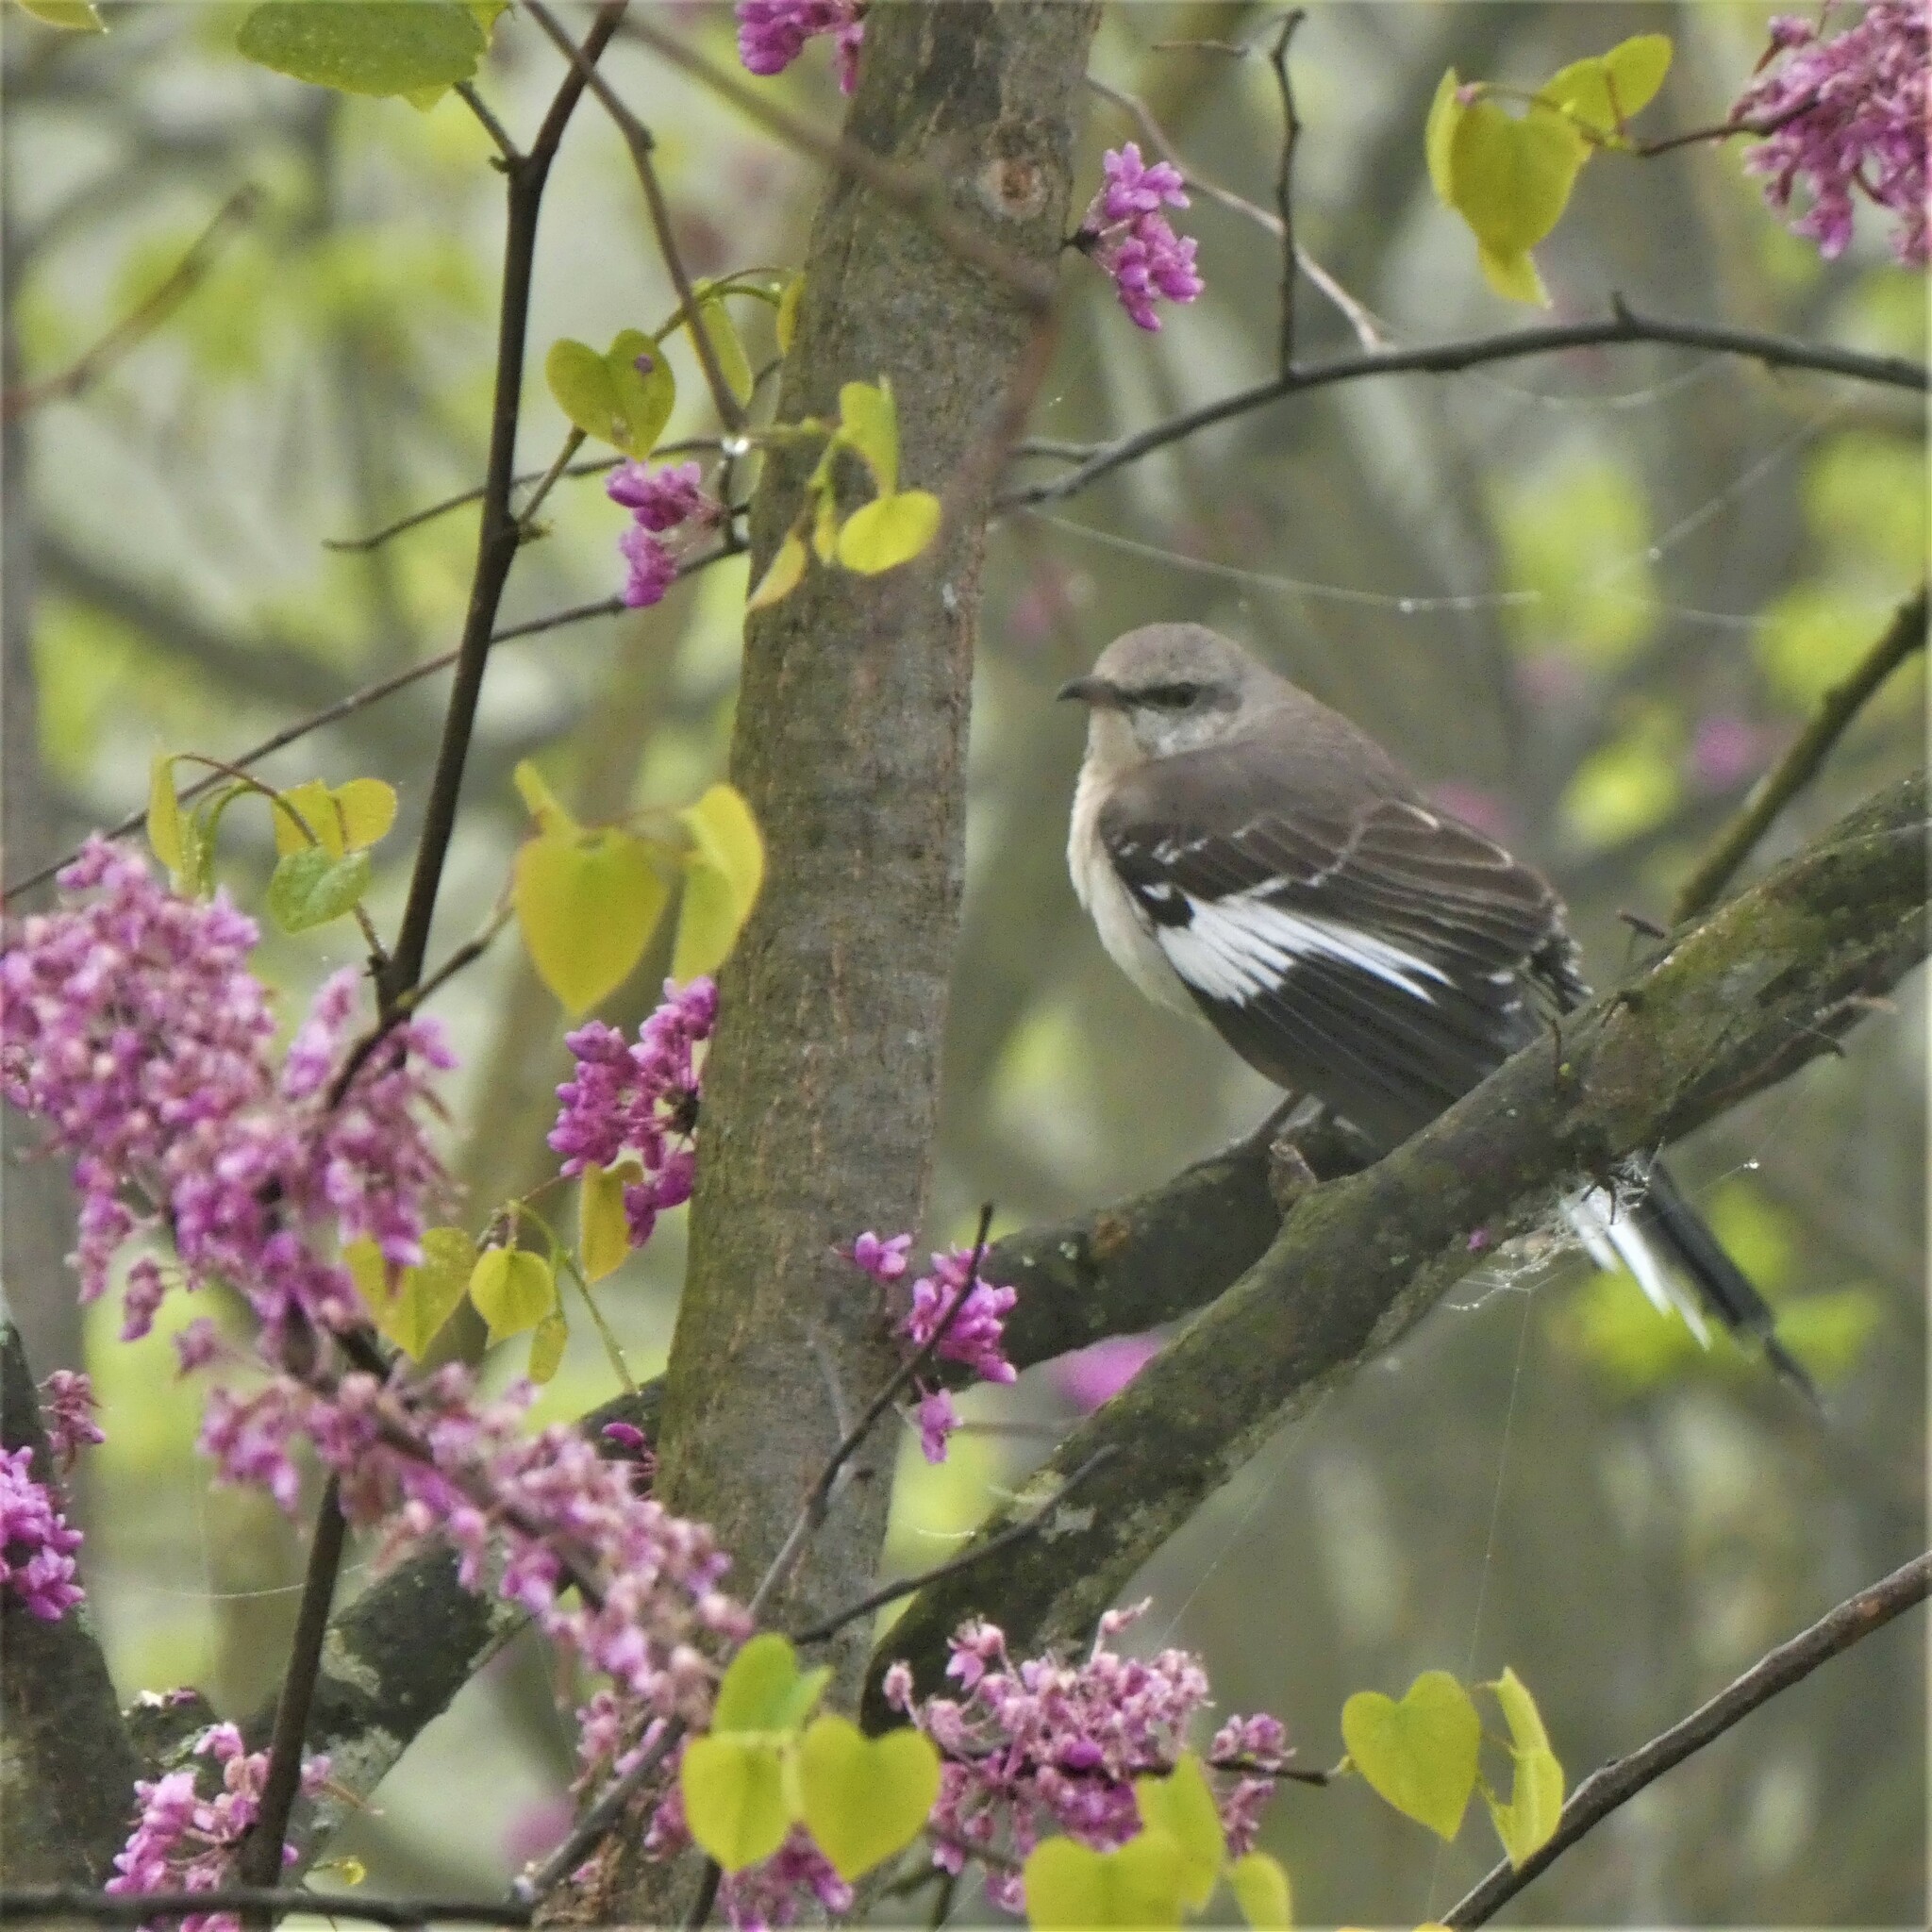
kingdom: Animalia
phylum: Chordata
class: Aves
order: Passeriformes
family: Mimidae
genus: Mimus
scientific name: Mimus polyglottos
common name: Northern mockingbird
